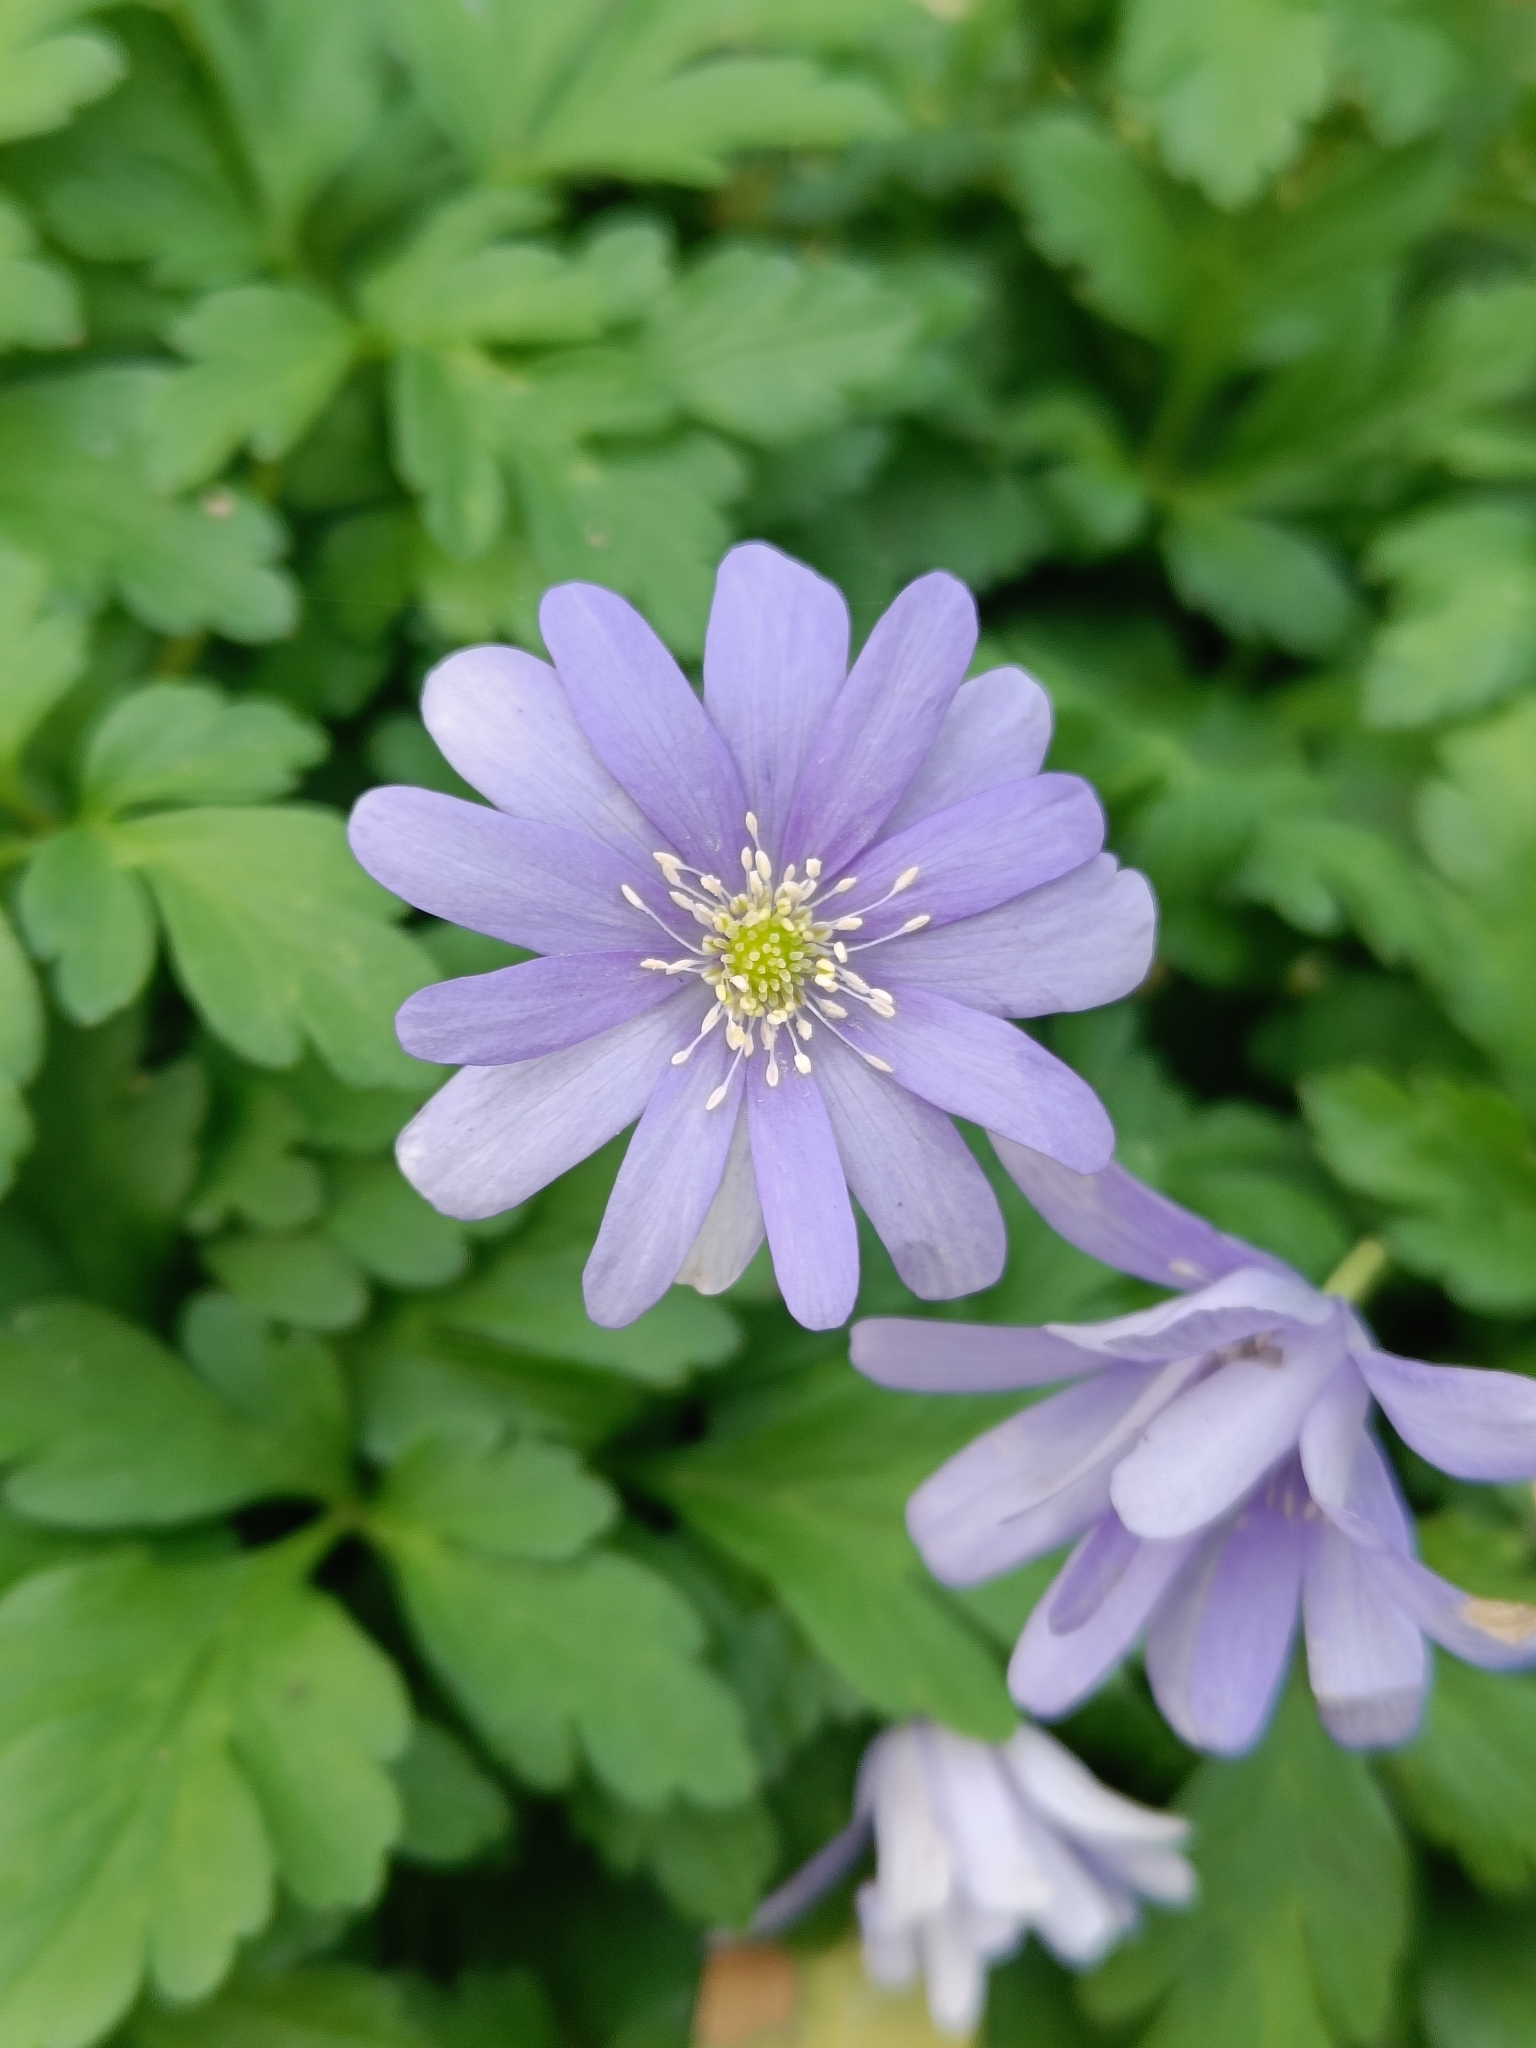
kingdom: Plantae
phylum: Tracheophyta
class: Magnoliopsida
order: Ranunculales
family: Ranunculaceae
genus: Anemone
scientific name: Anemone apennina
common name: Blue anemone
